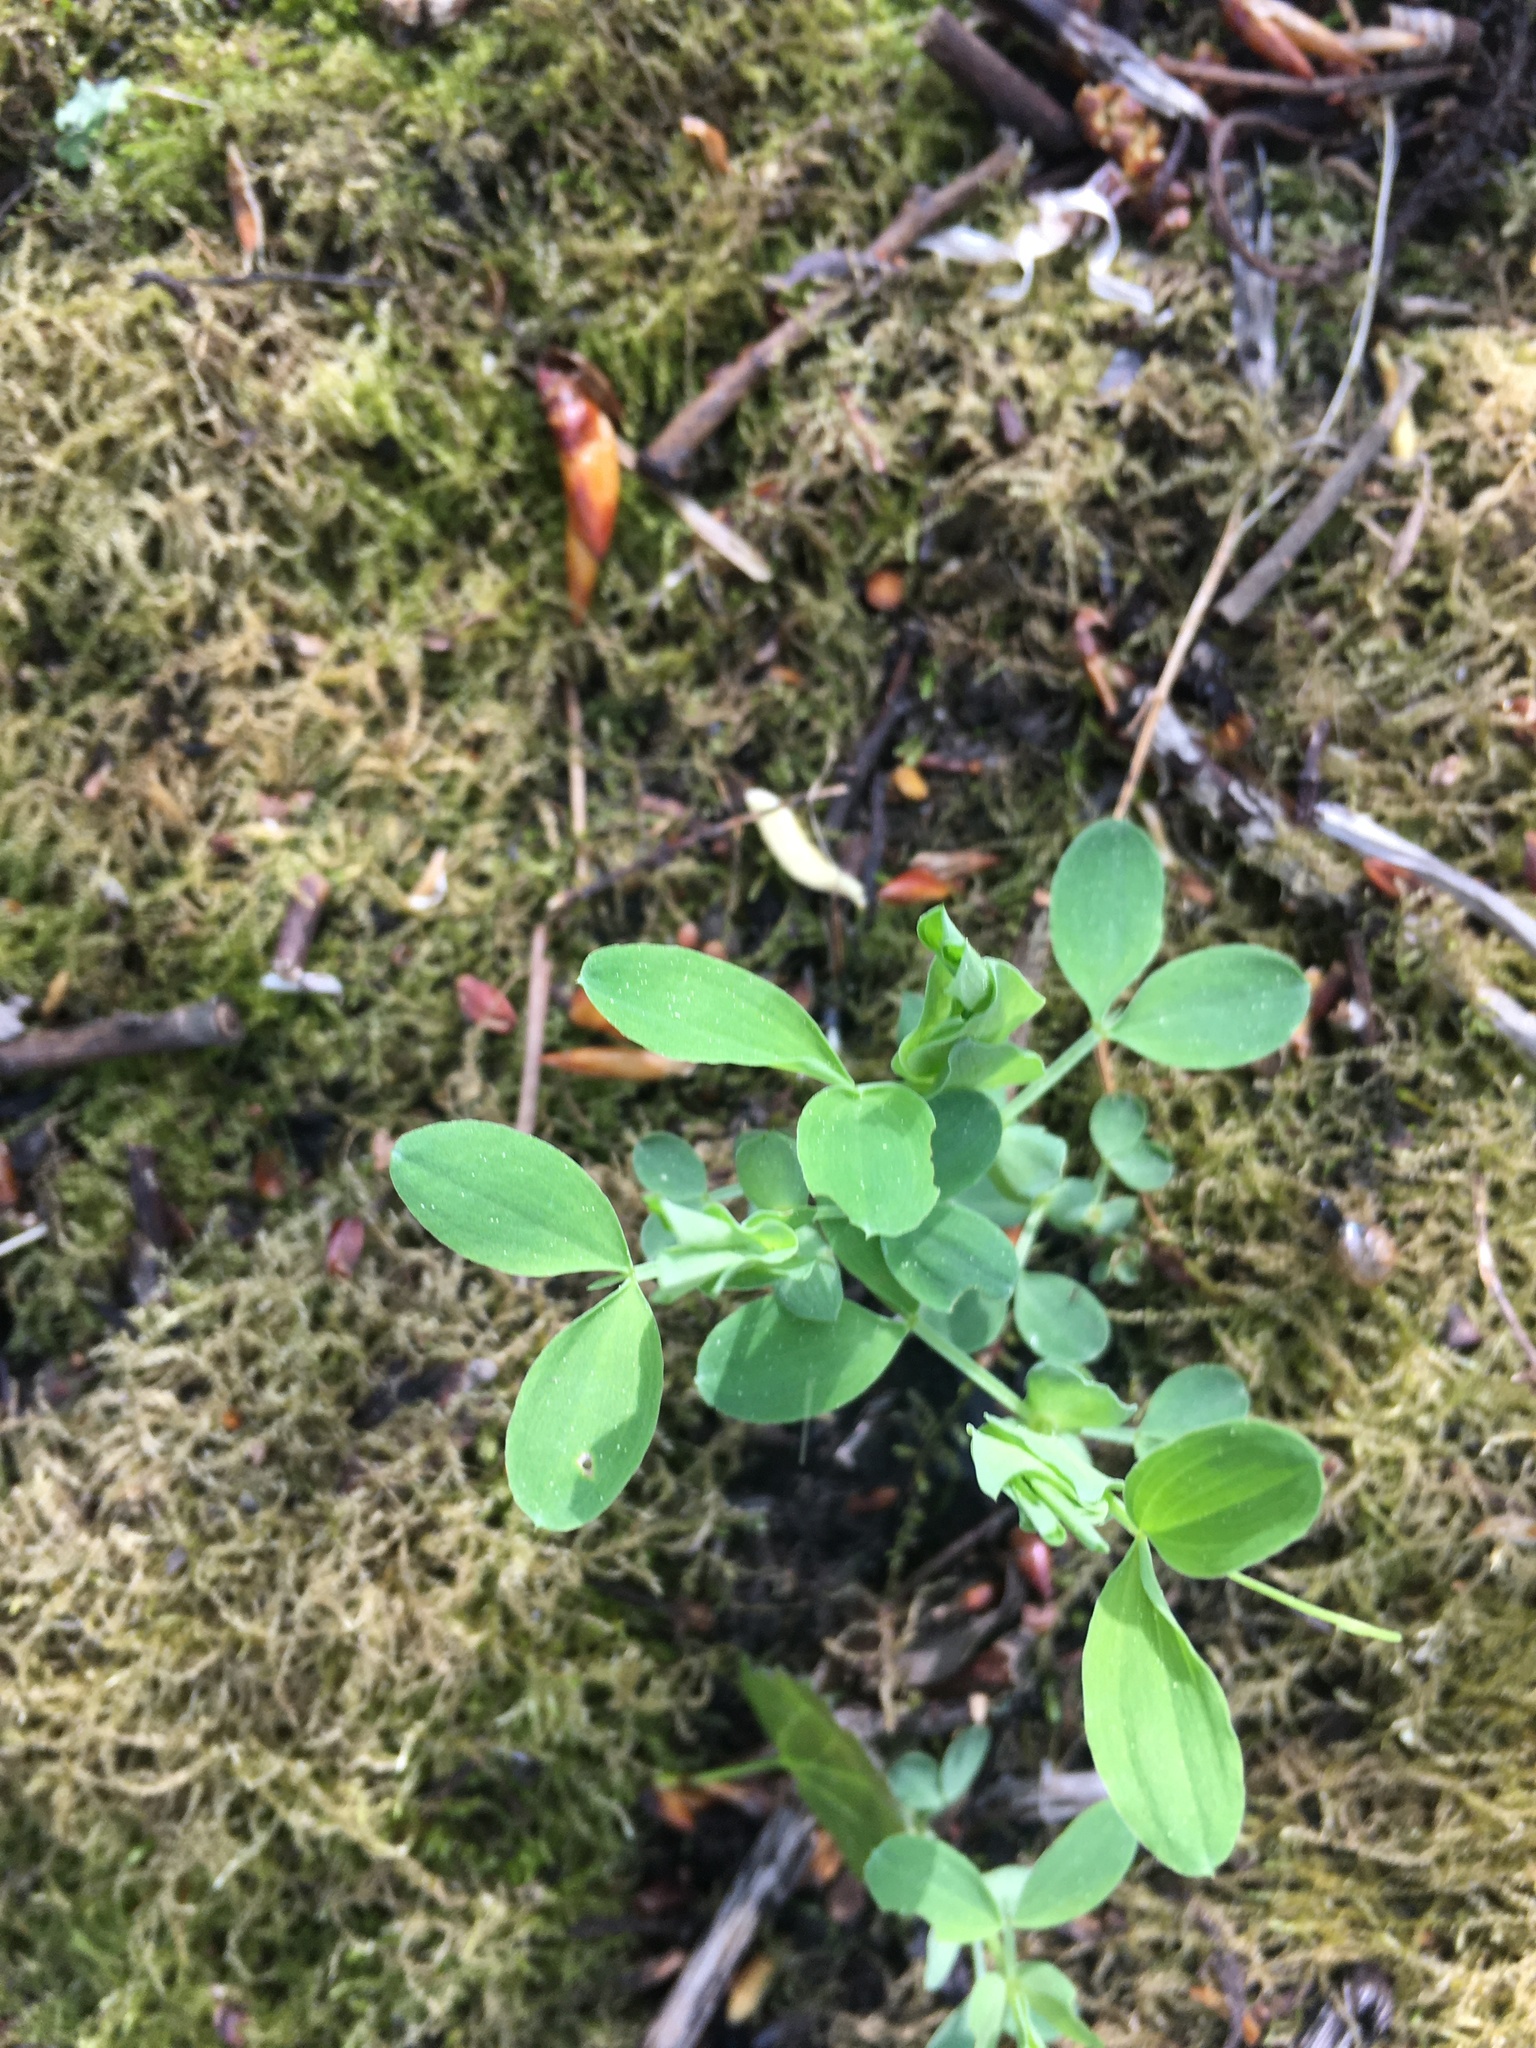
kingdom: Plantae
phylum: Tracheophyta
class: Magnoliopsida
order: Fabales
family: Fabaceae
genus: Lathyrus
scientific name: Lathyrus pratensis
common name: Meadow vetchling
